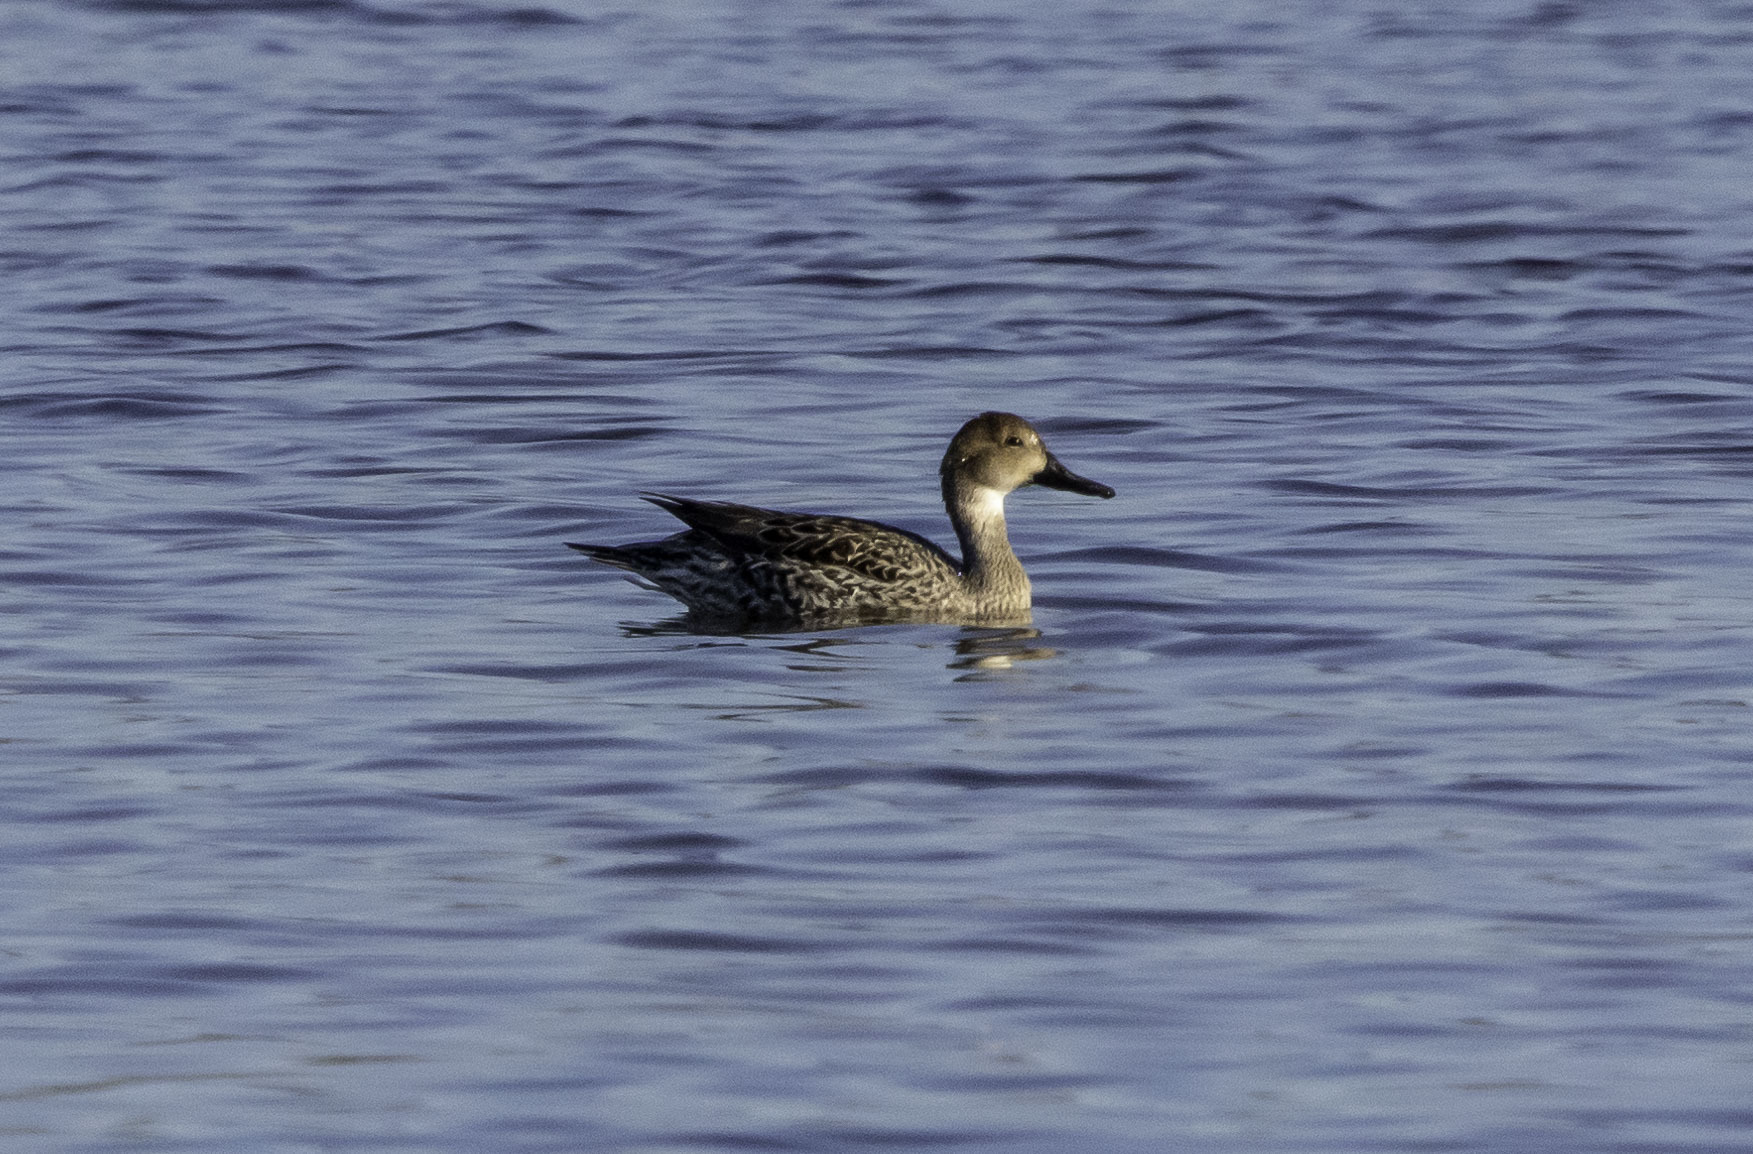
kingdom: Animalia
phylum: Chordata
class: Aves
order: Anseriformes
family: Anatidae
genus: Anas
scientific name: Anas acuta
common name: Northern pintail
